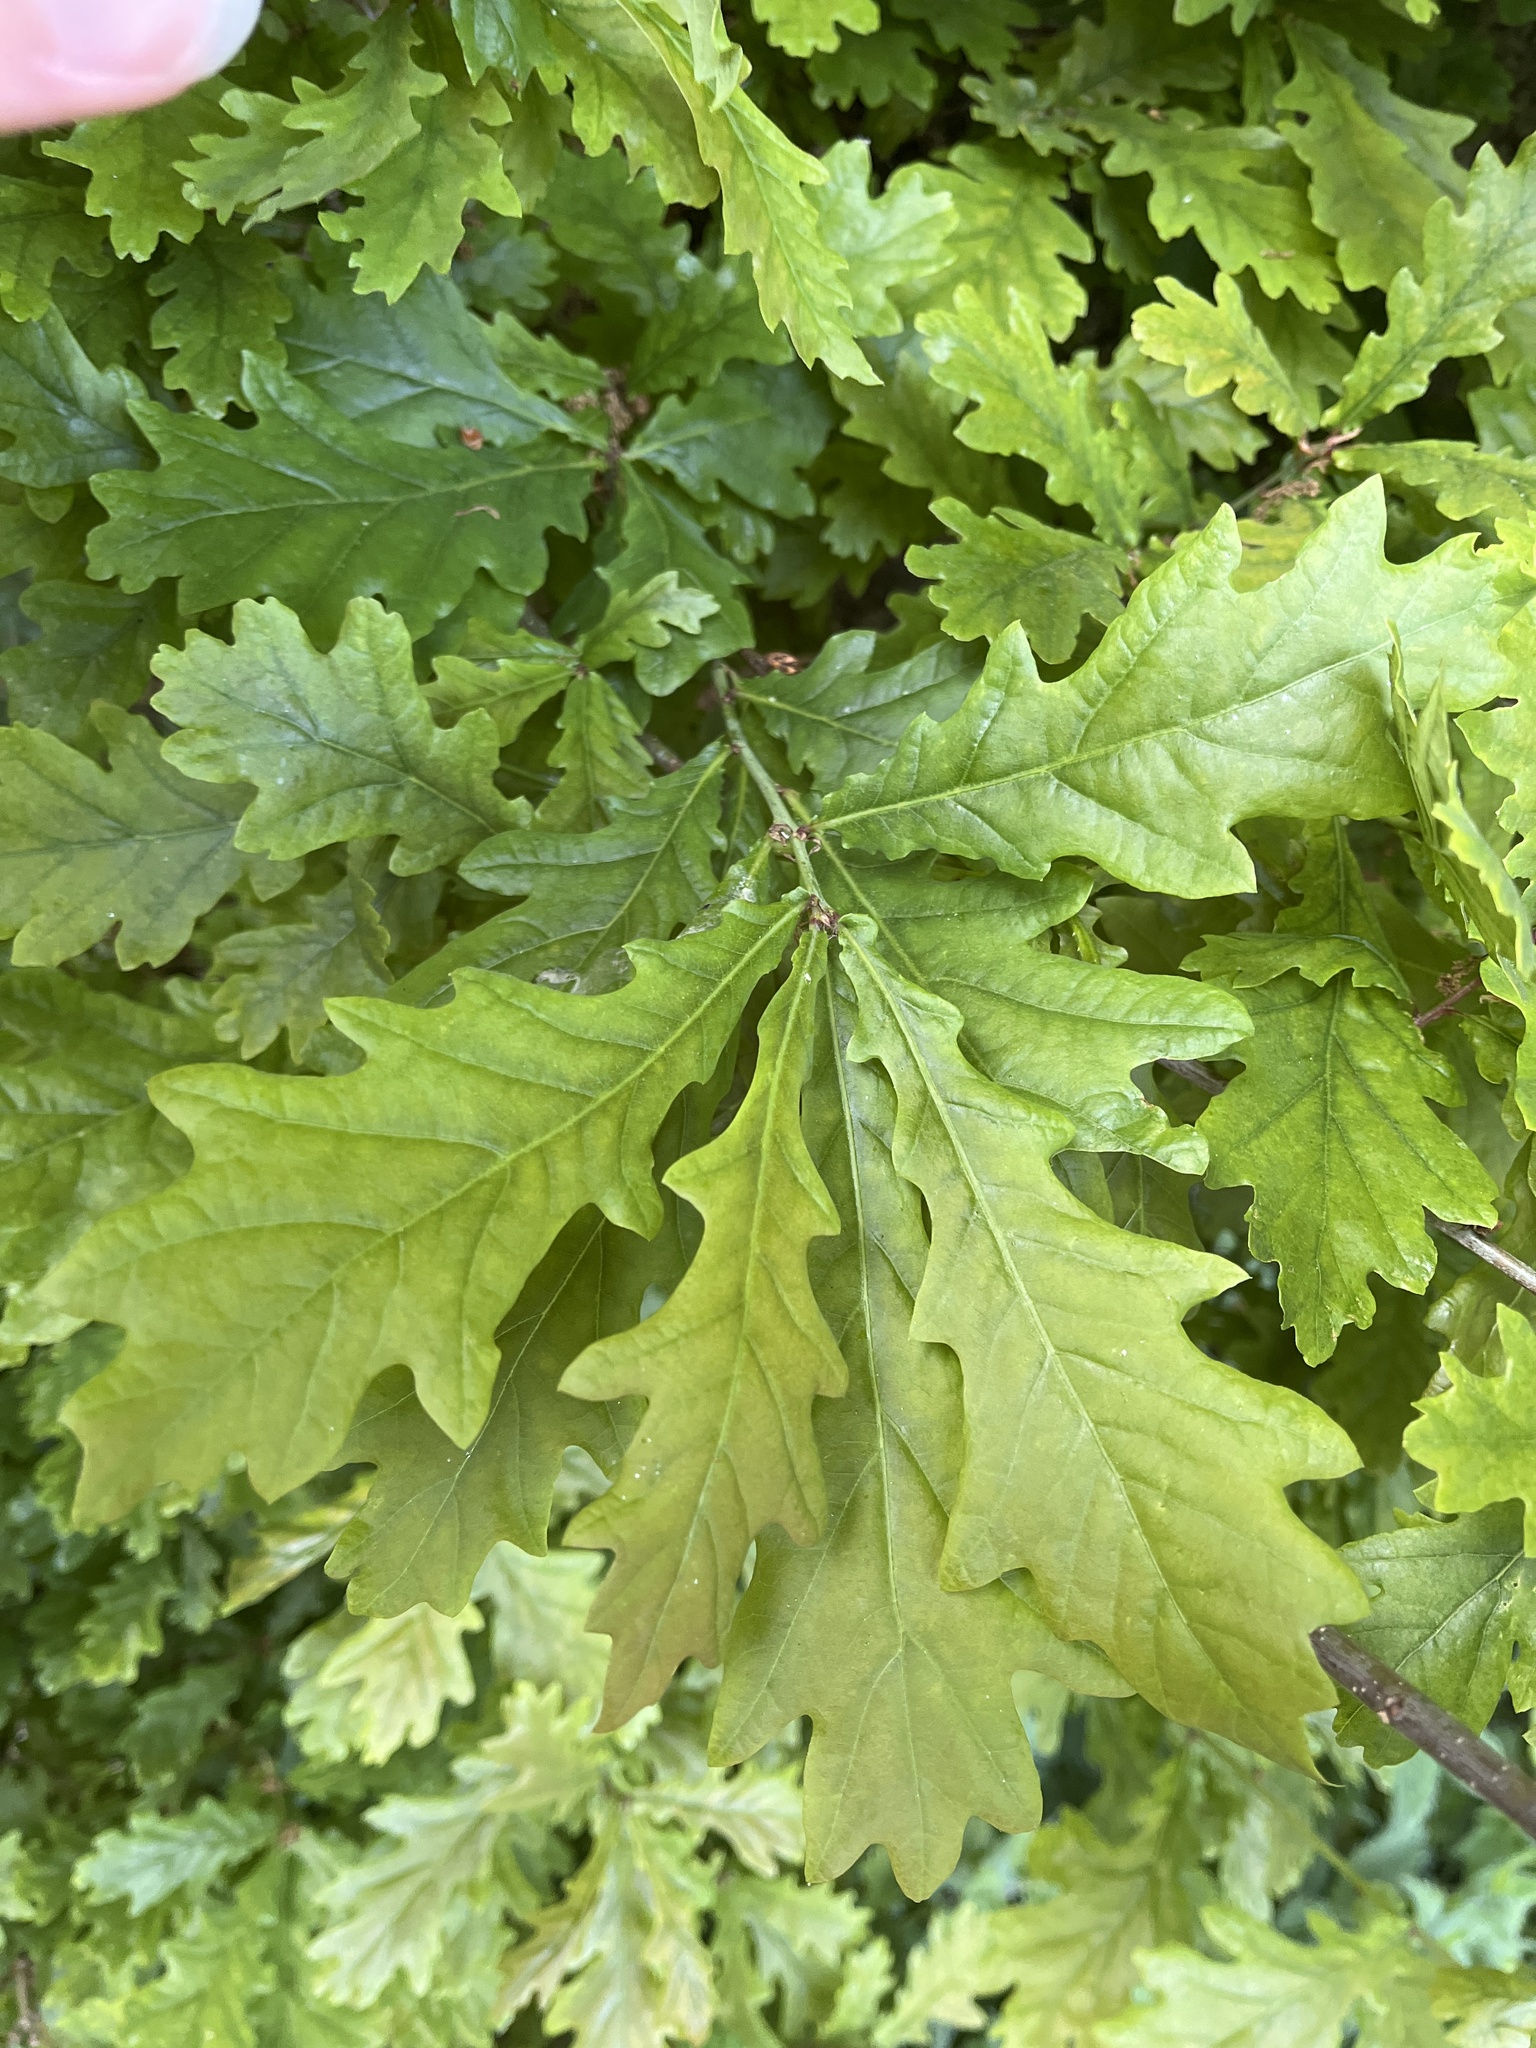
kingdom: Plantae
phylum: Tracheophyta
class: Magnoliopsida
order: Fagales
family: Fagaceae
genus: Quercus
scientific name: Quercus robur
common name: Pedunculate oak
